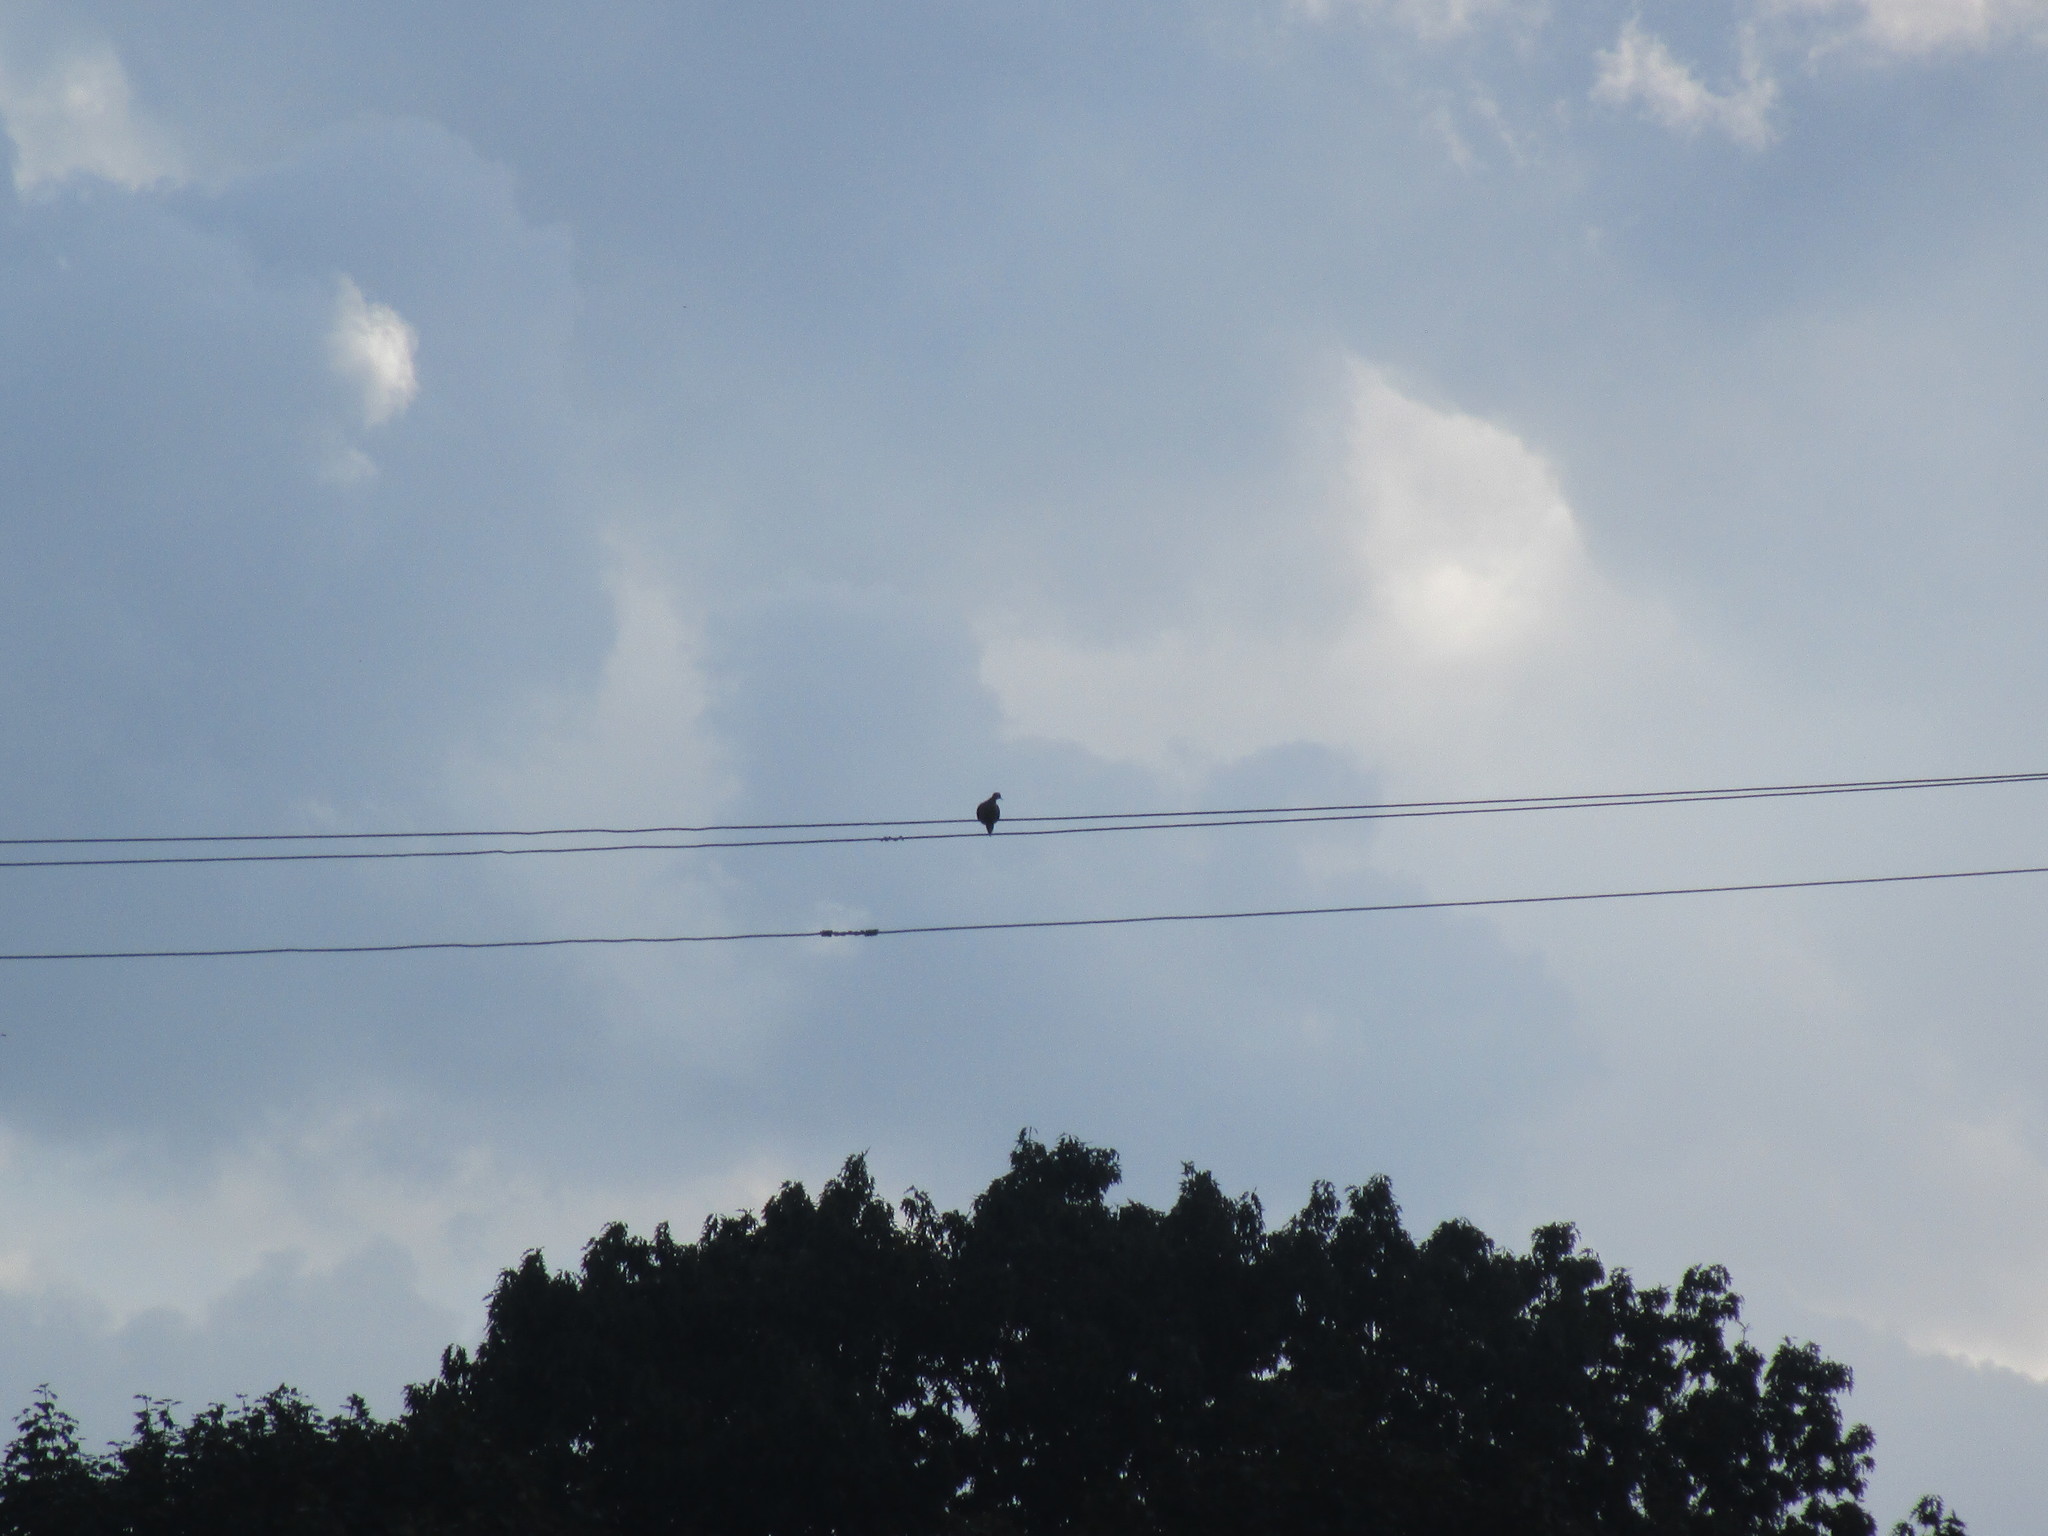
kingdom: Animalia
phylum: Chordata
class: Aves
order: Columbiformes
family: Columbidae
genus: Zenaida
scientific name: Zenaida macroura
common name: Mourning dove
